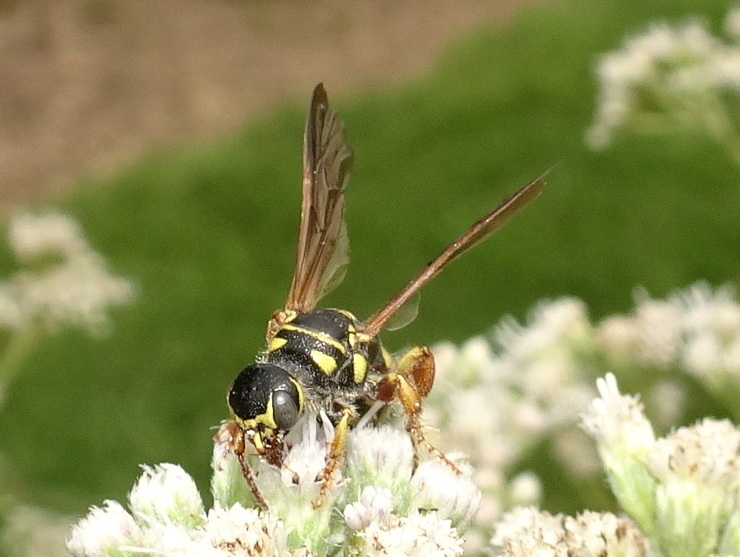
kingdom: Animalia
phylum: Arthropoda
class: Insecta
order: Hymenoptera
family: Tiphiidae
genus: Myzinum
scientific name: Myzinum quinquecinctum
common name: Five-banded thynnid wasp
